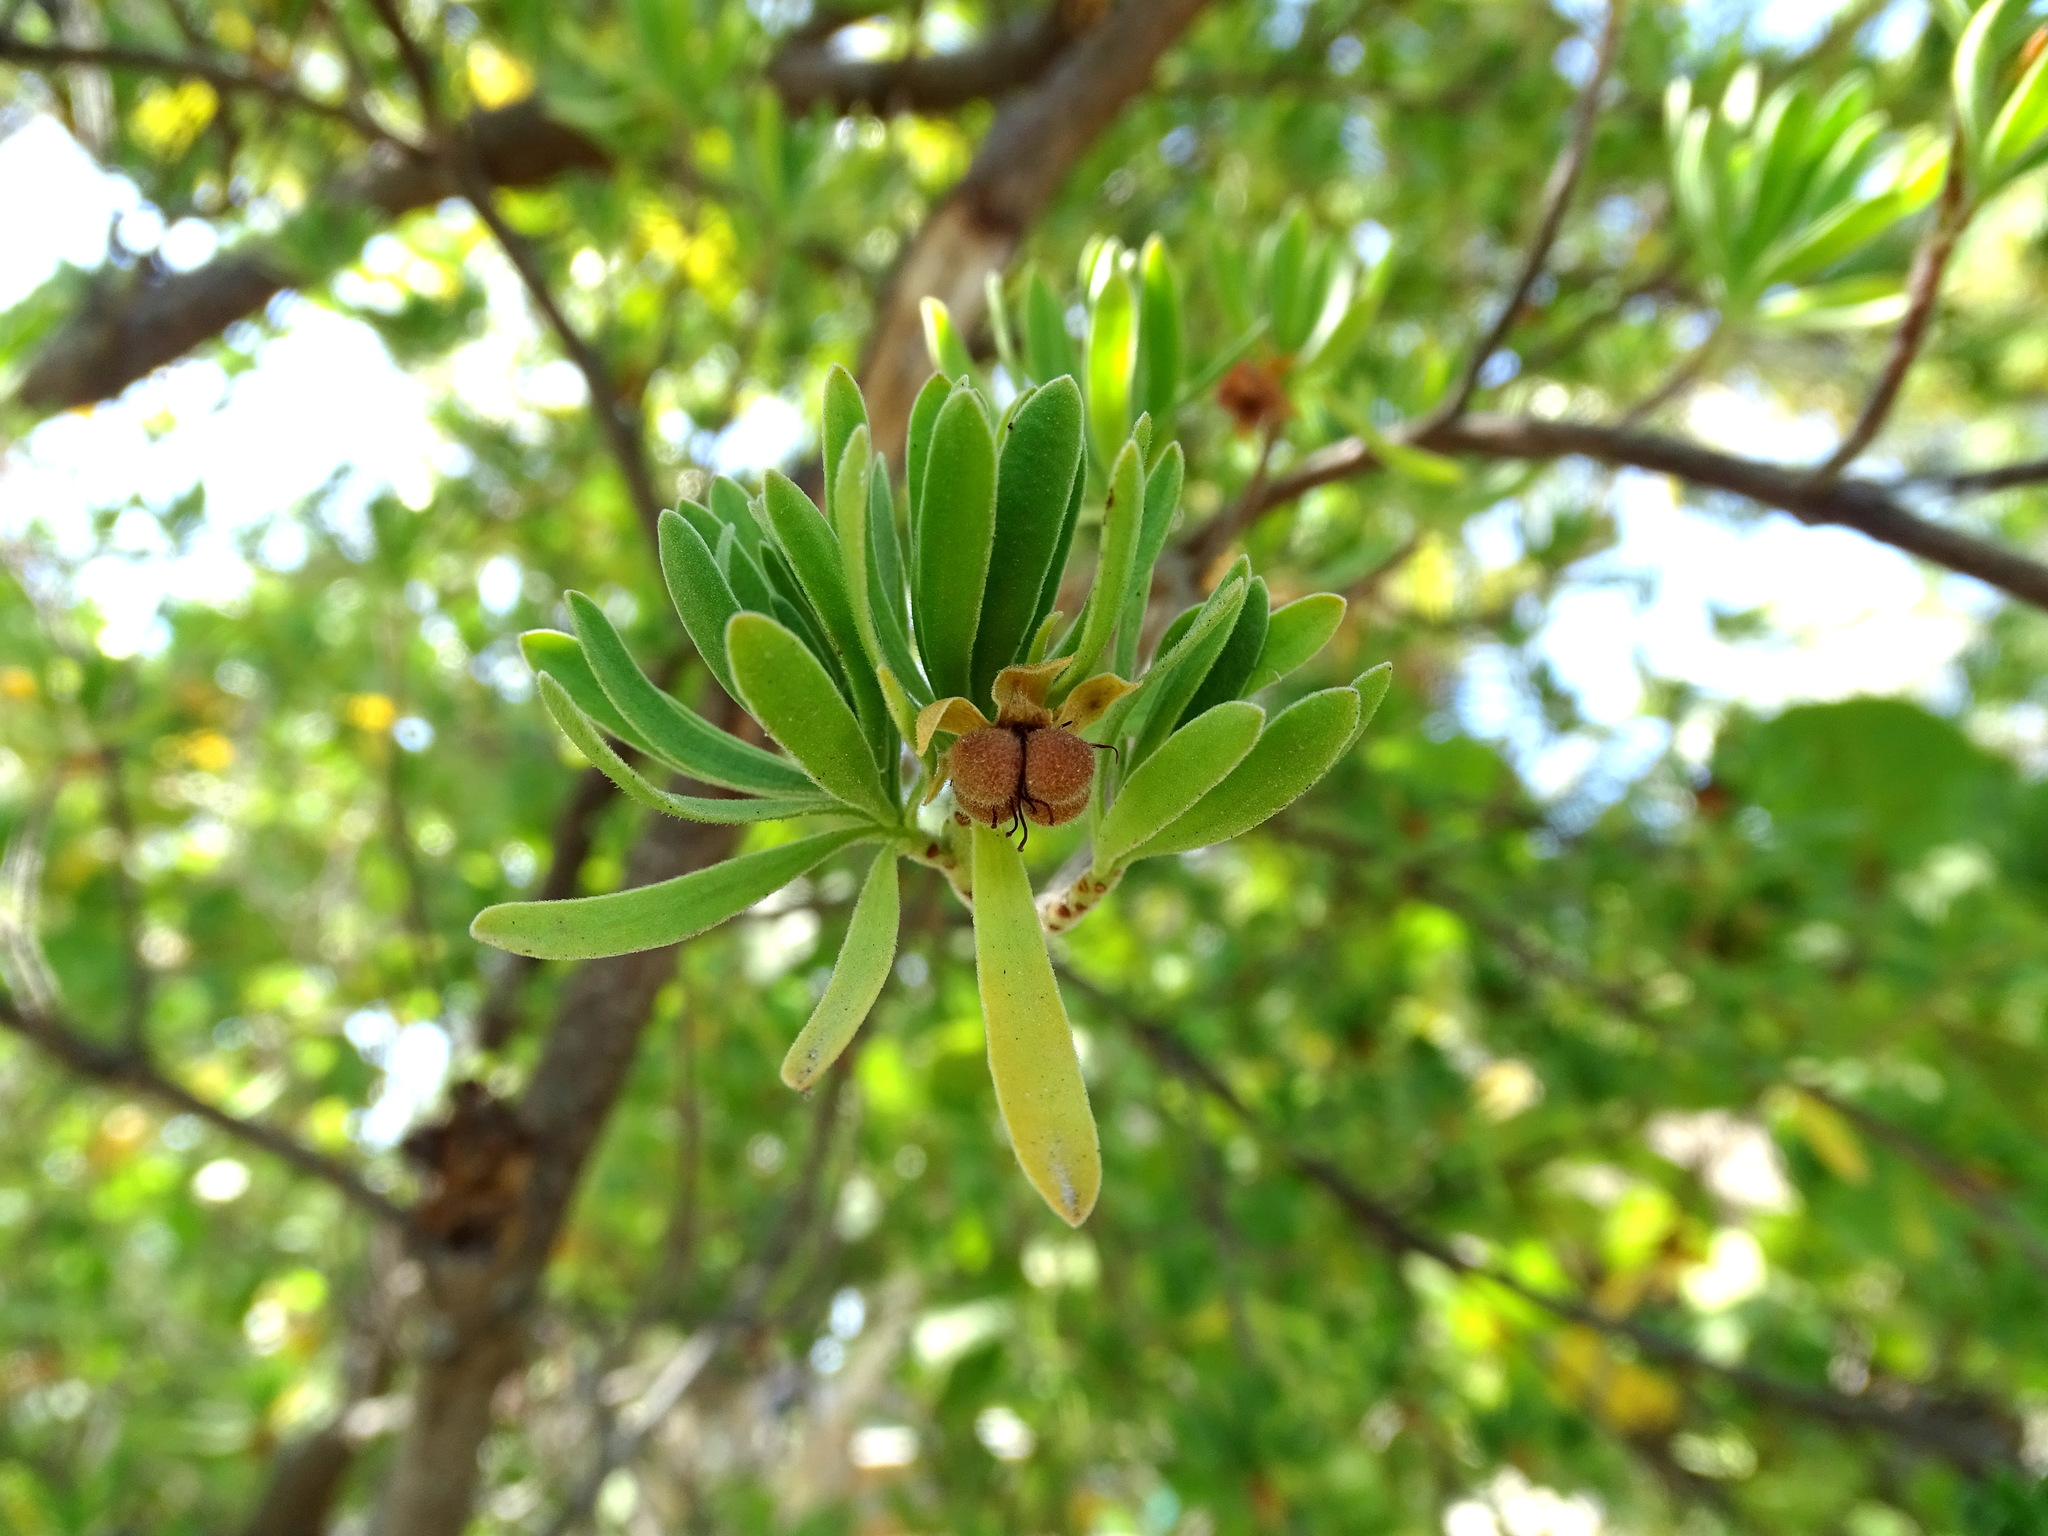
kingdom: Plantae
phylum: Tracheophyta
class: Magnoliopsida
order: Fabales
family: Surianaceae
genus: Suriana
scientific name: Suriana maritima
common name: Bay-cedar
